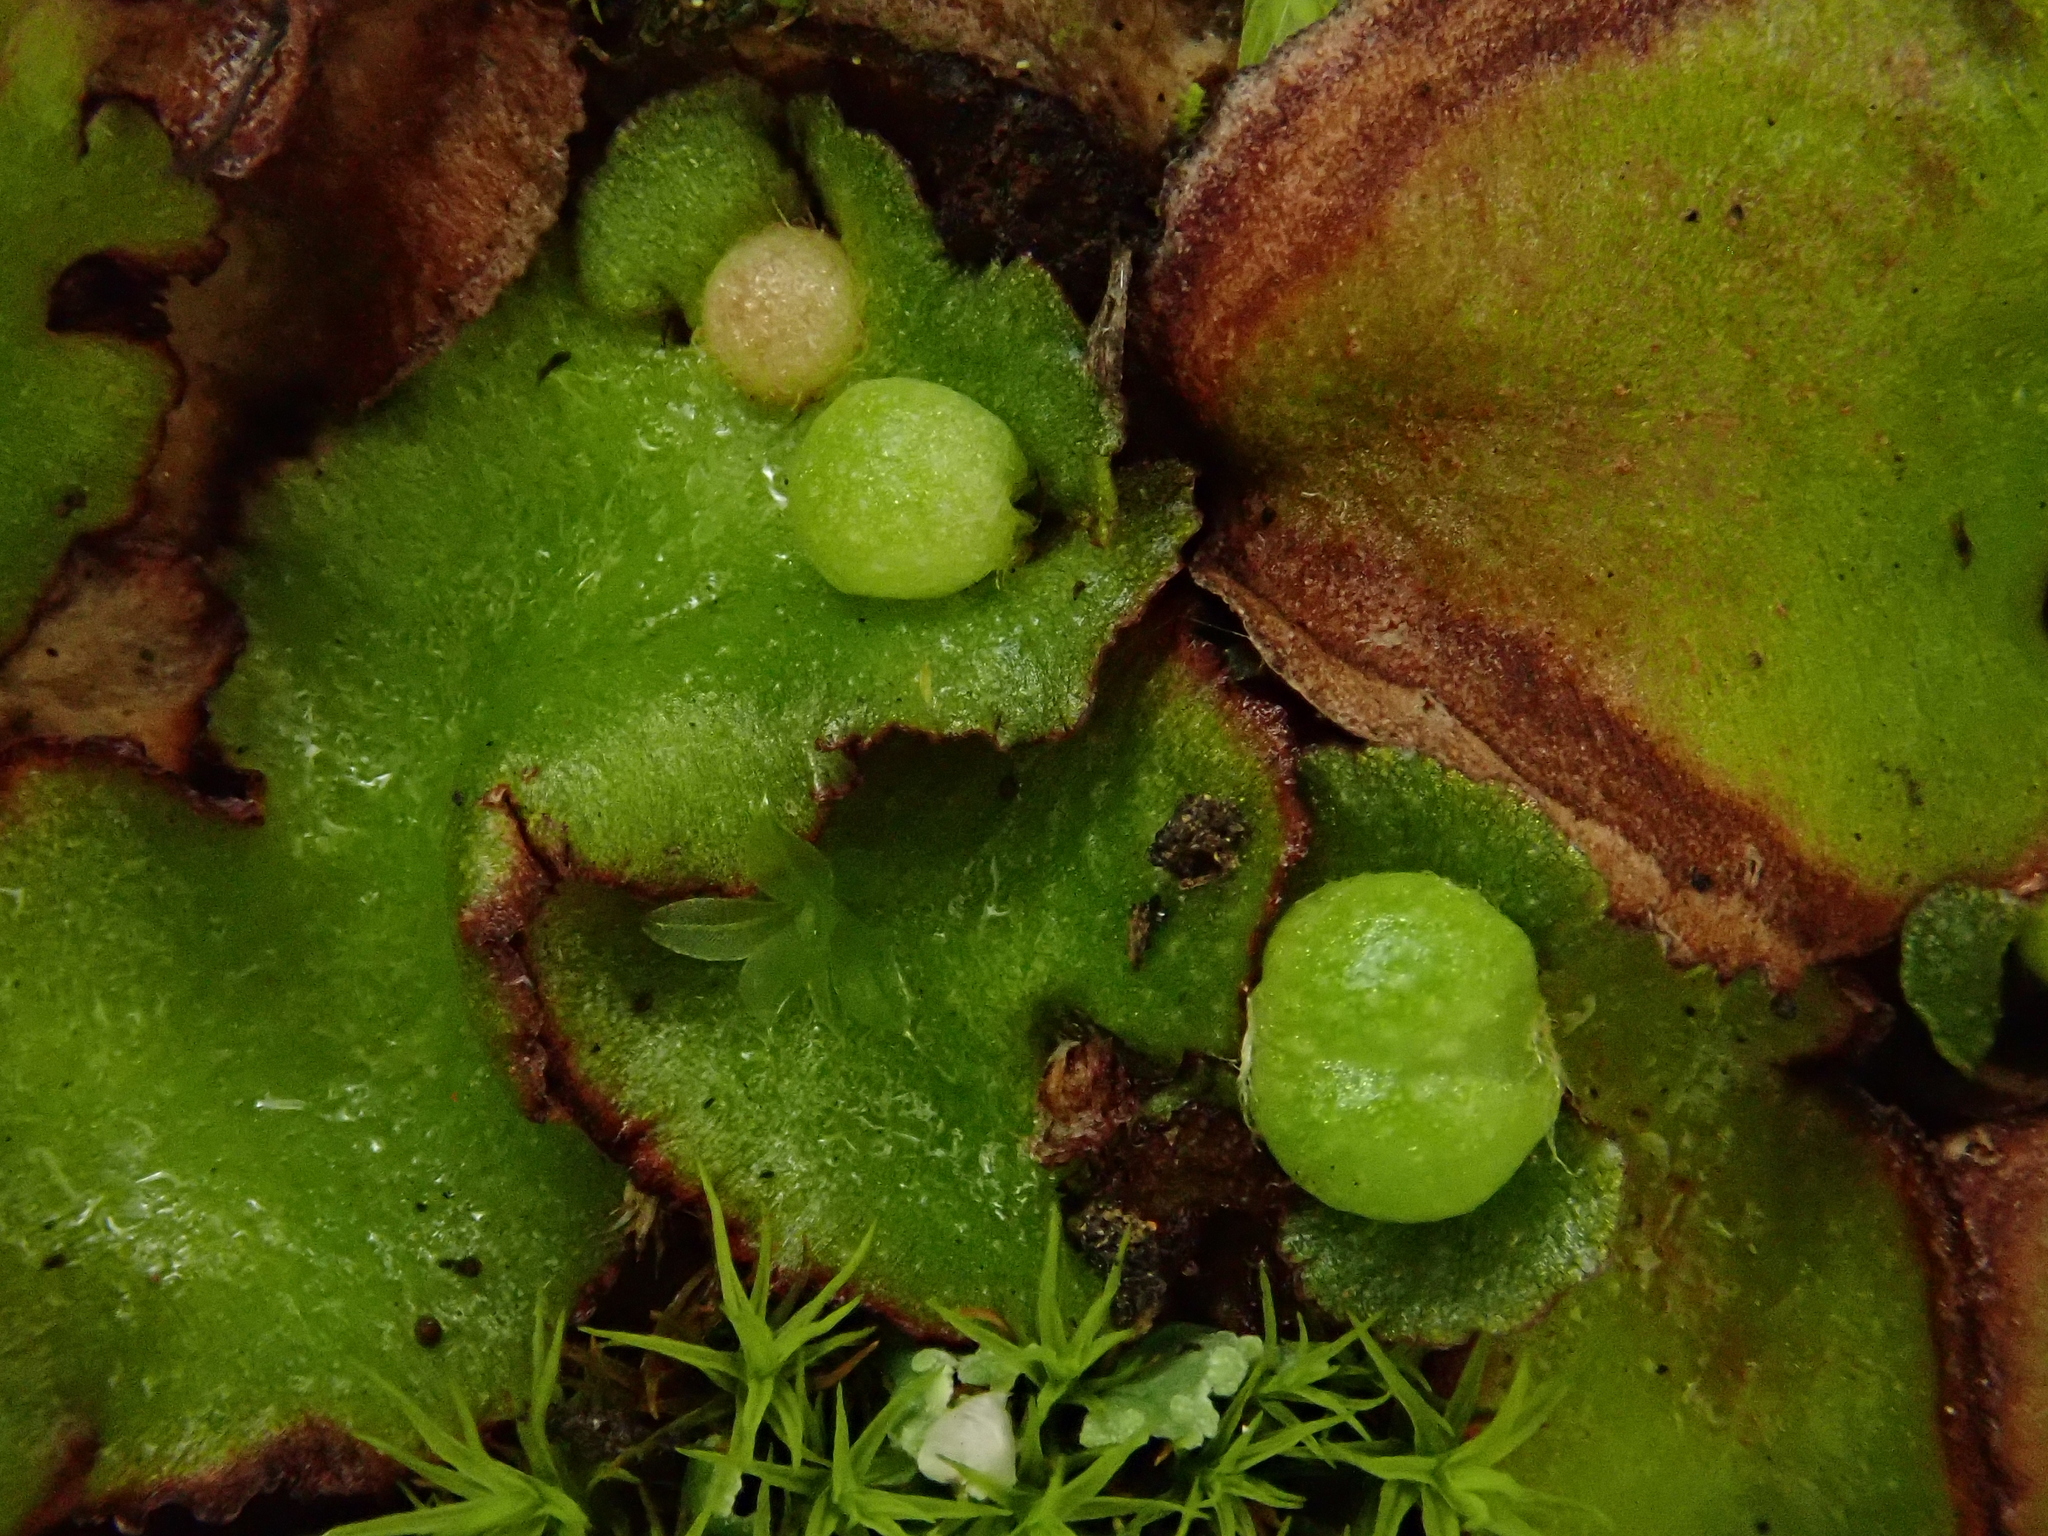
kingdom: Plantae
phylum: Marchantiophyta
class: Marchantiopsida
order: Marchantiales
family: Aytoniaceae
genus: Reboulia
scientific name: Reboulia hemisphaerica
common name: Purple-margined liverwort
